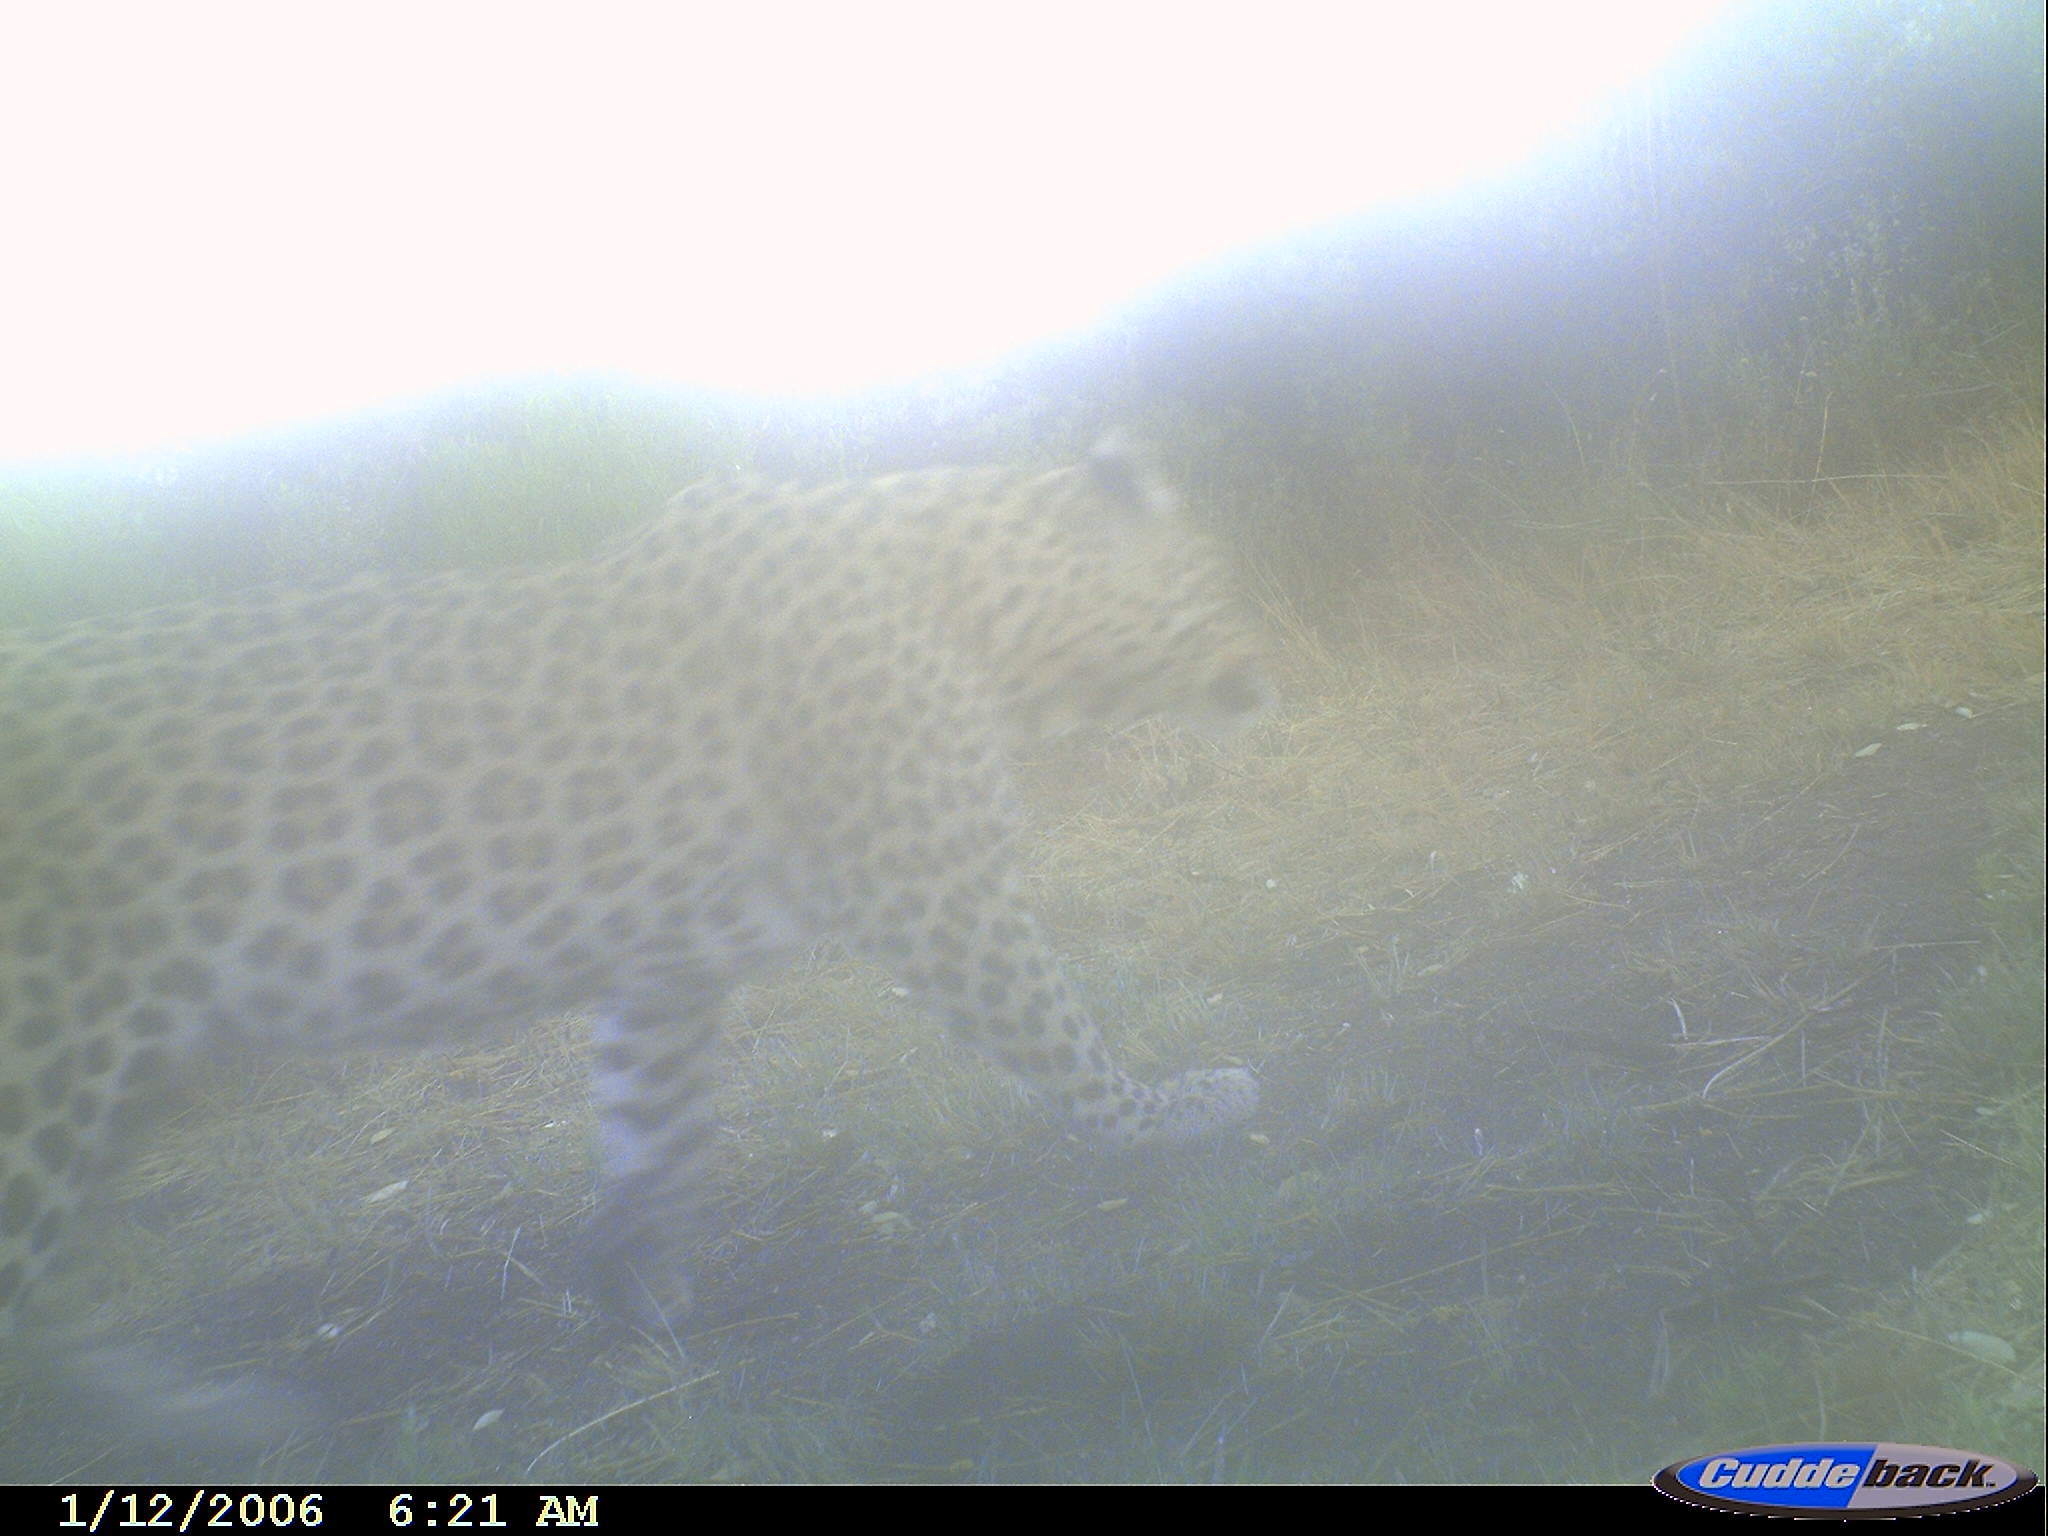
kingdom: Animalia
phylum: Chordata
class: Mammalia
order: Carnivora
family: Felidae
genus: Panthera
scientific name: Panthera pardus
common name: Leopard
